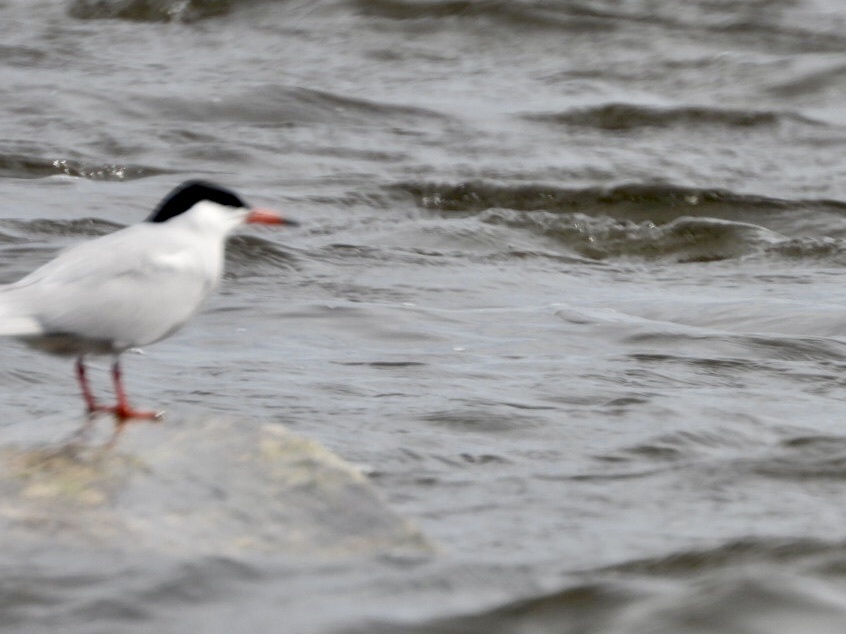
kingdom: Animalia
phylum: Chordata
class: Aves
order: Charadriiformes
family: Laridae
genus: Sterna
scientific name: Sterna hirundo
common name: Common tern
